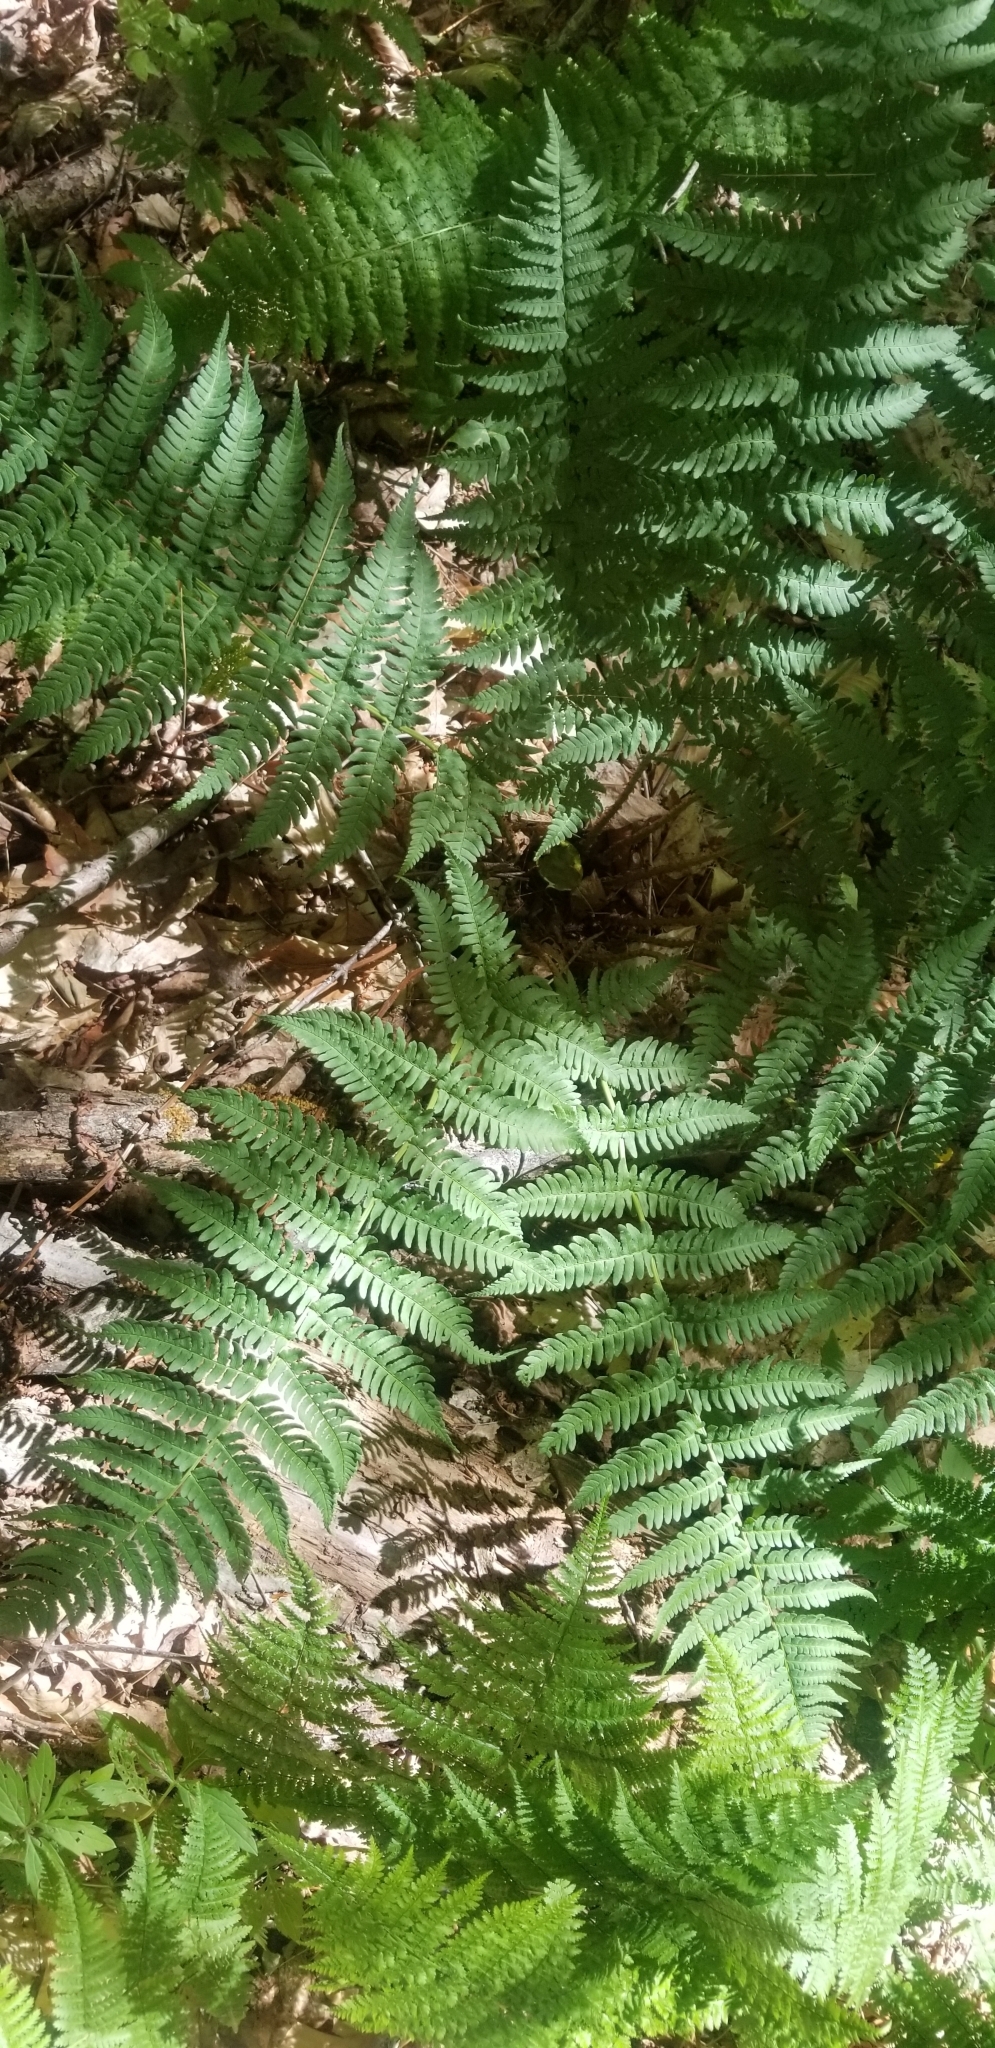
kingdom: Plantae
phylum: Tracheophyta
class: Polypodiopsida
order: Polypodiales
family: Dryopteridaceae
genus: Dryopteris
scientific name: Dryopteris marginalis
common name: Marginal wood fern
